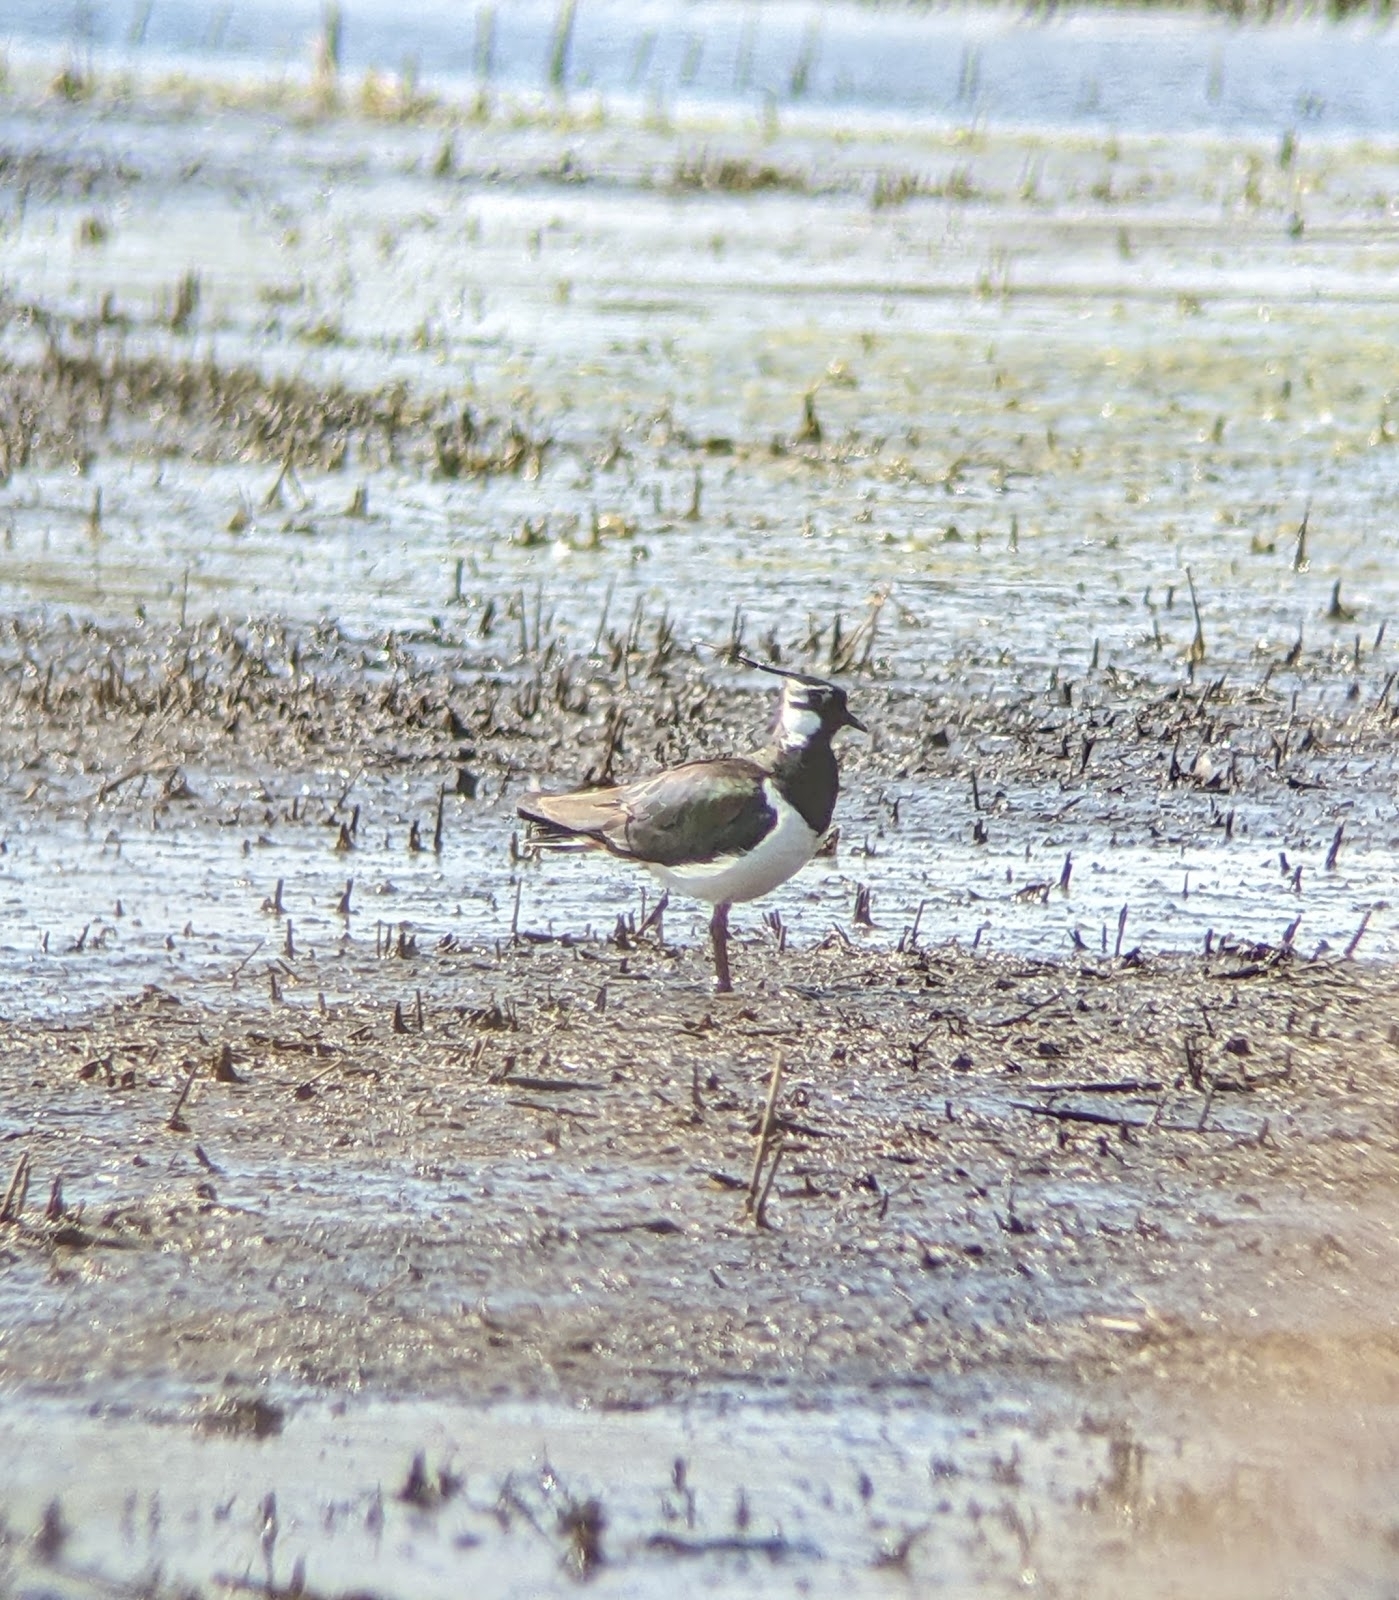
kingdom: Animalia
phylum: Chordata
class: Aves
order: Charadriiformes
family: Charadriidae
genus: Vanellus
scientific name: Vanellus vanellus
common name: Northern lapwing
